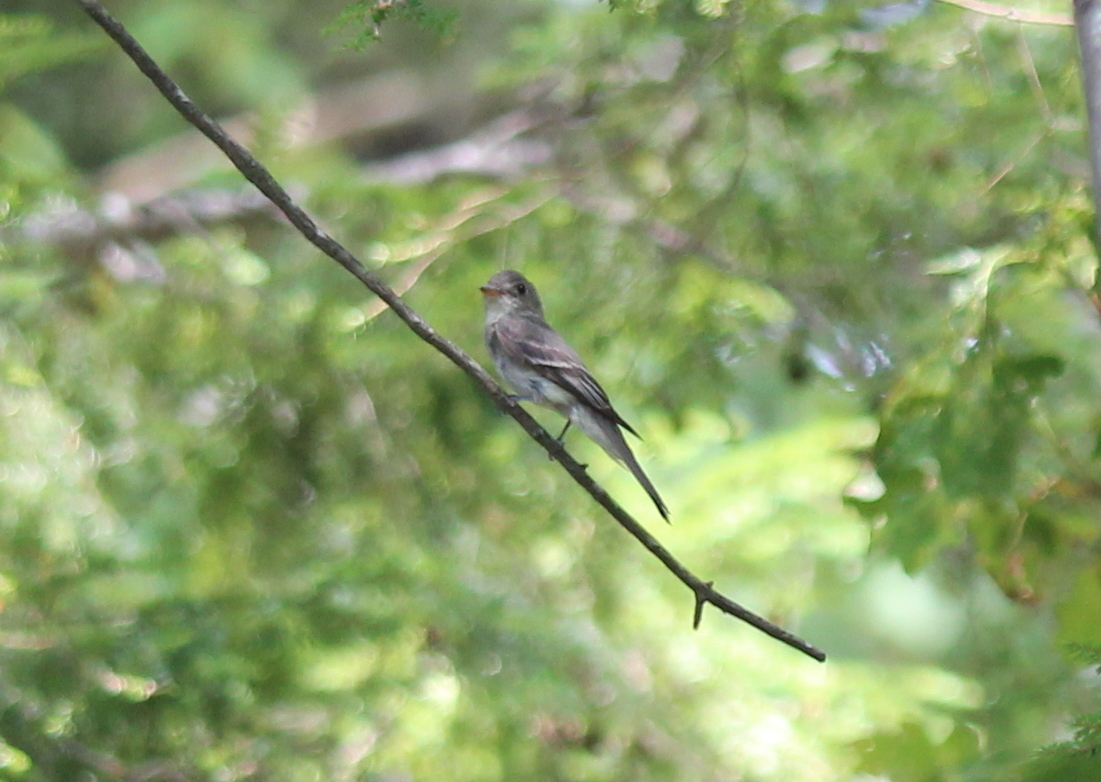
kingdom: Animalia
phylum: Chordata
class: Aves
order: Passeriformes
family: Tyrannidae
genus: Contopus
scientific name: Contopus virens
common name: Eastern wood-pewee
